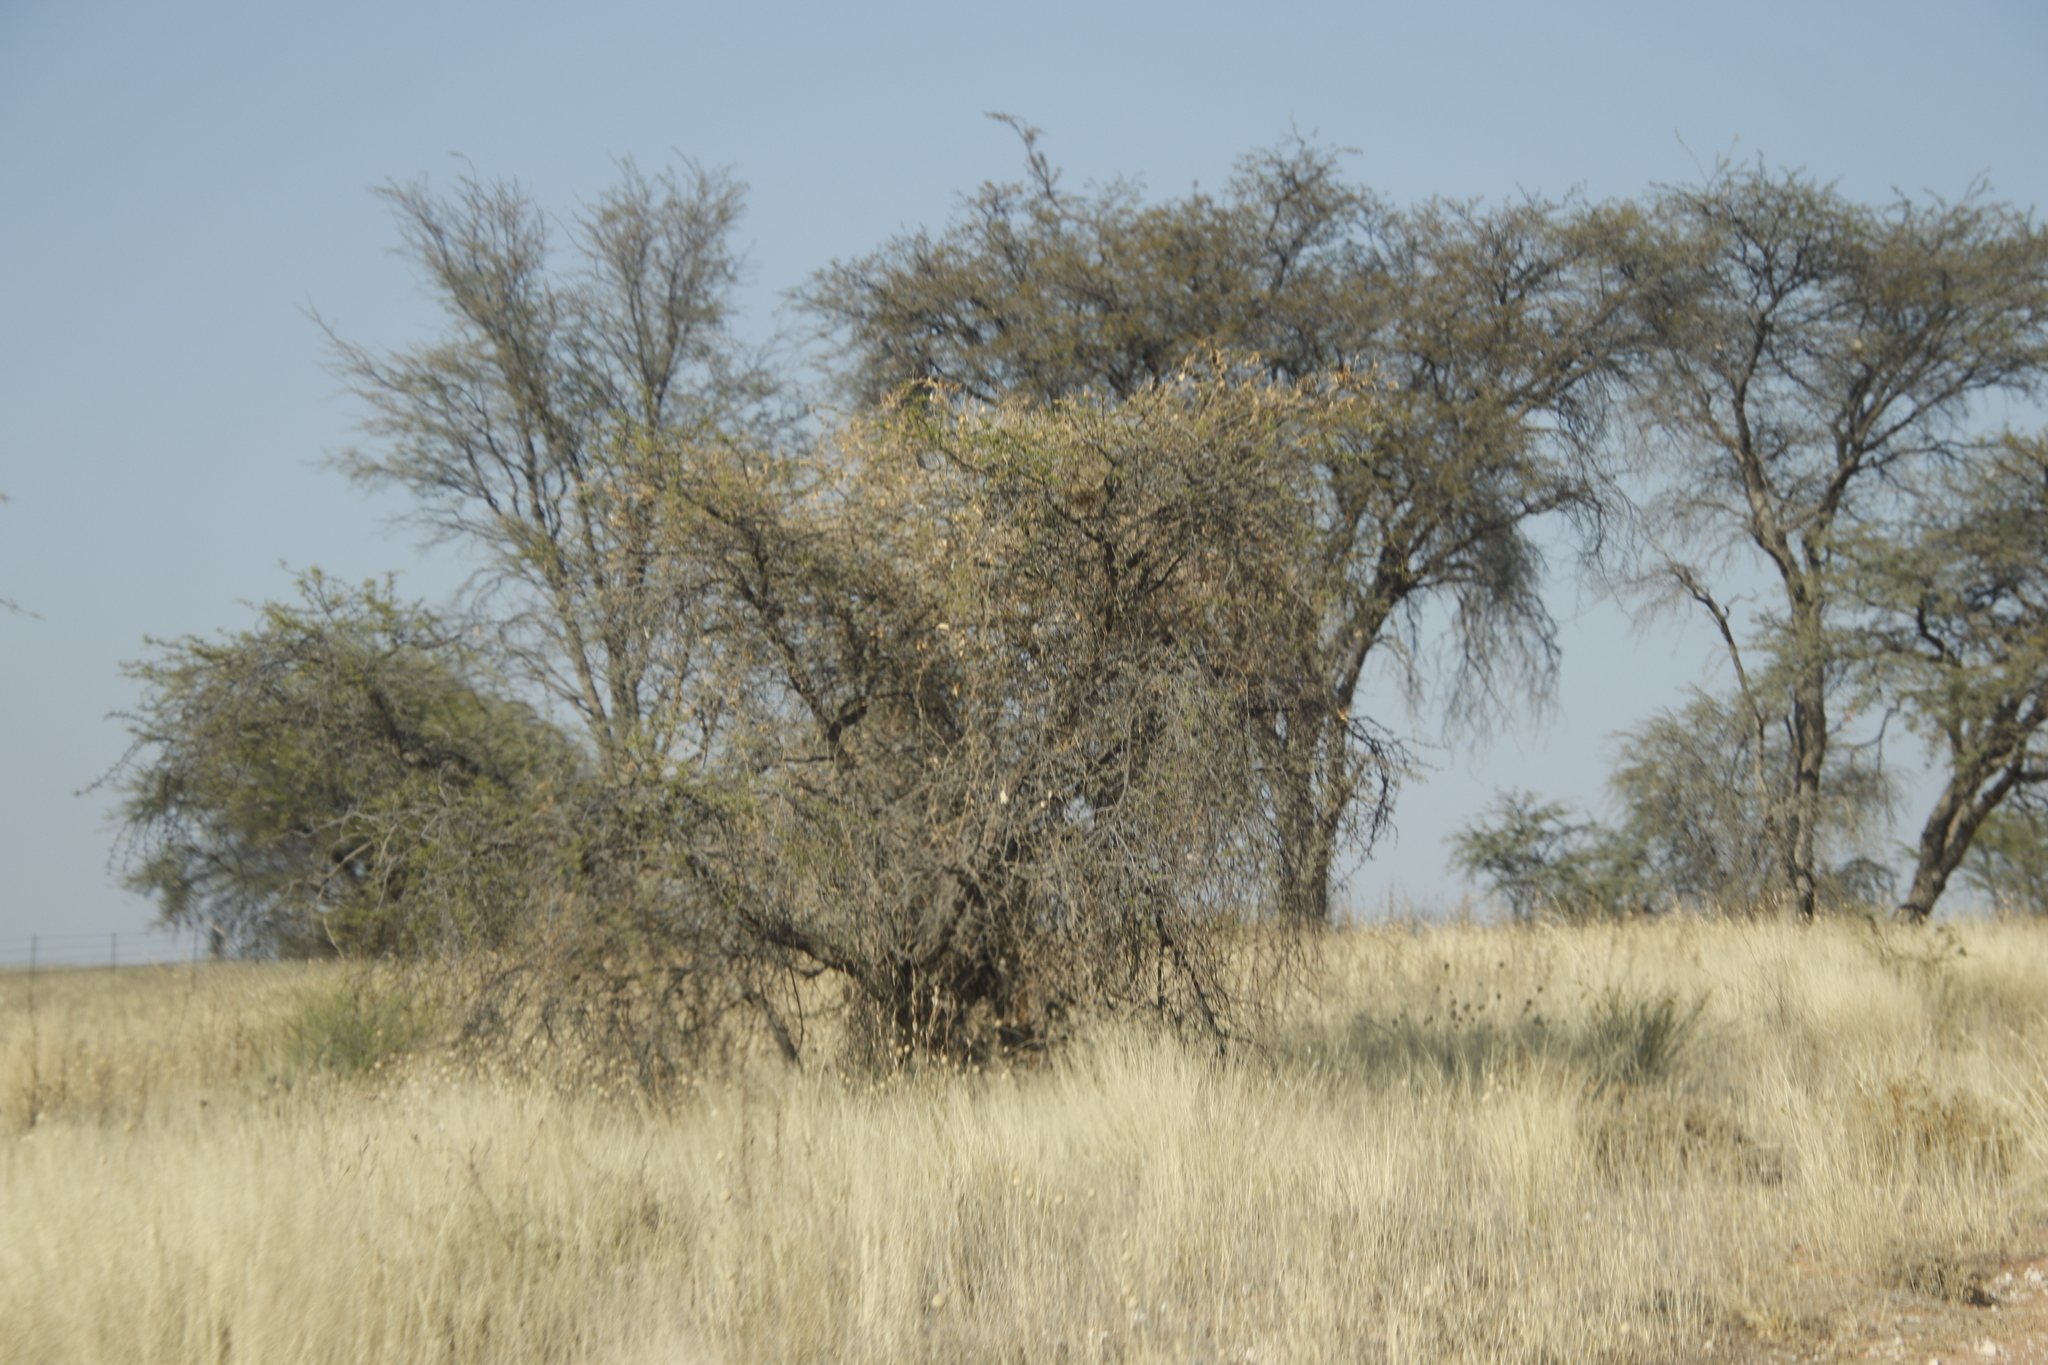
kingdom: Plantae
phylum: Tracheophyta
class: Magnoliopsida
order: Fabales
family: Fabaceae
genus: Vachellia
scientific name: Vachellia erioloba
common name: Camel thorn
